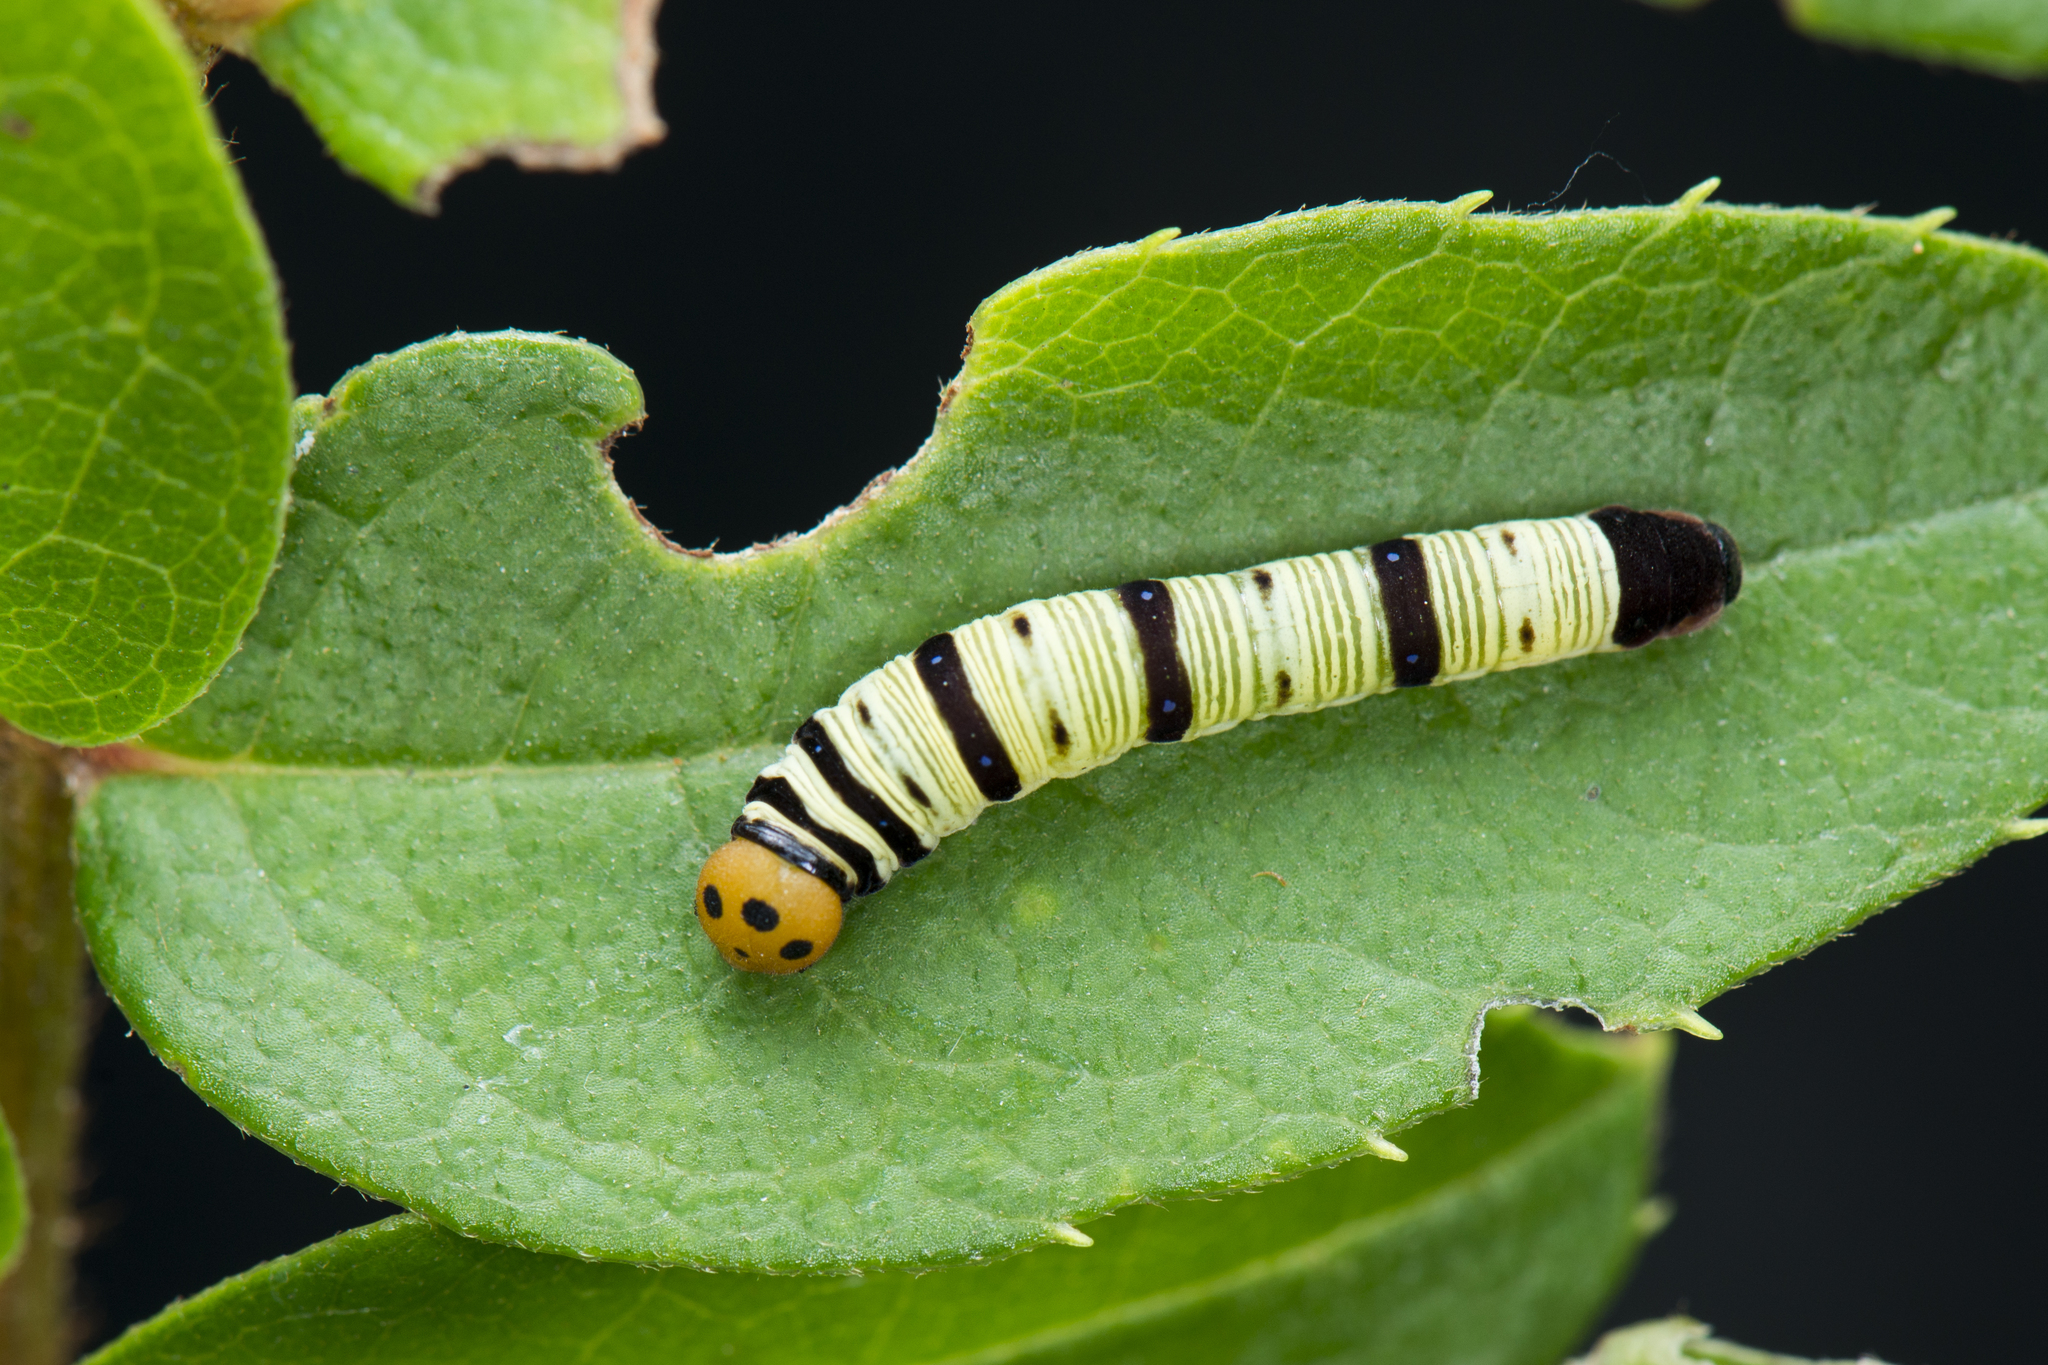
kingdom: Animalia
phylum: Arthropoda
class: Insecta
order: Lepidoptera
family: Hesperiidae
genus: Choaspes
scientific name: Choaspes benjaminii
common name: Indian awlking
